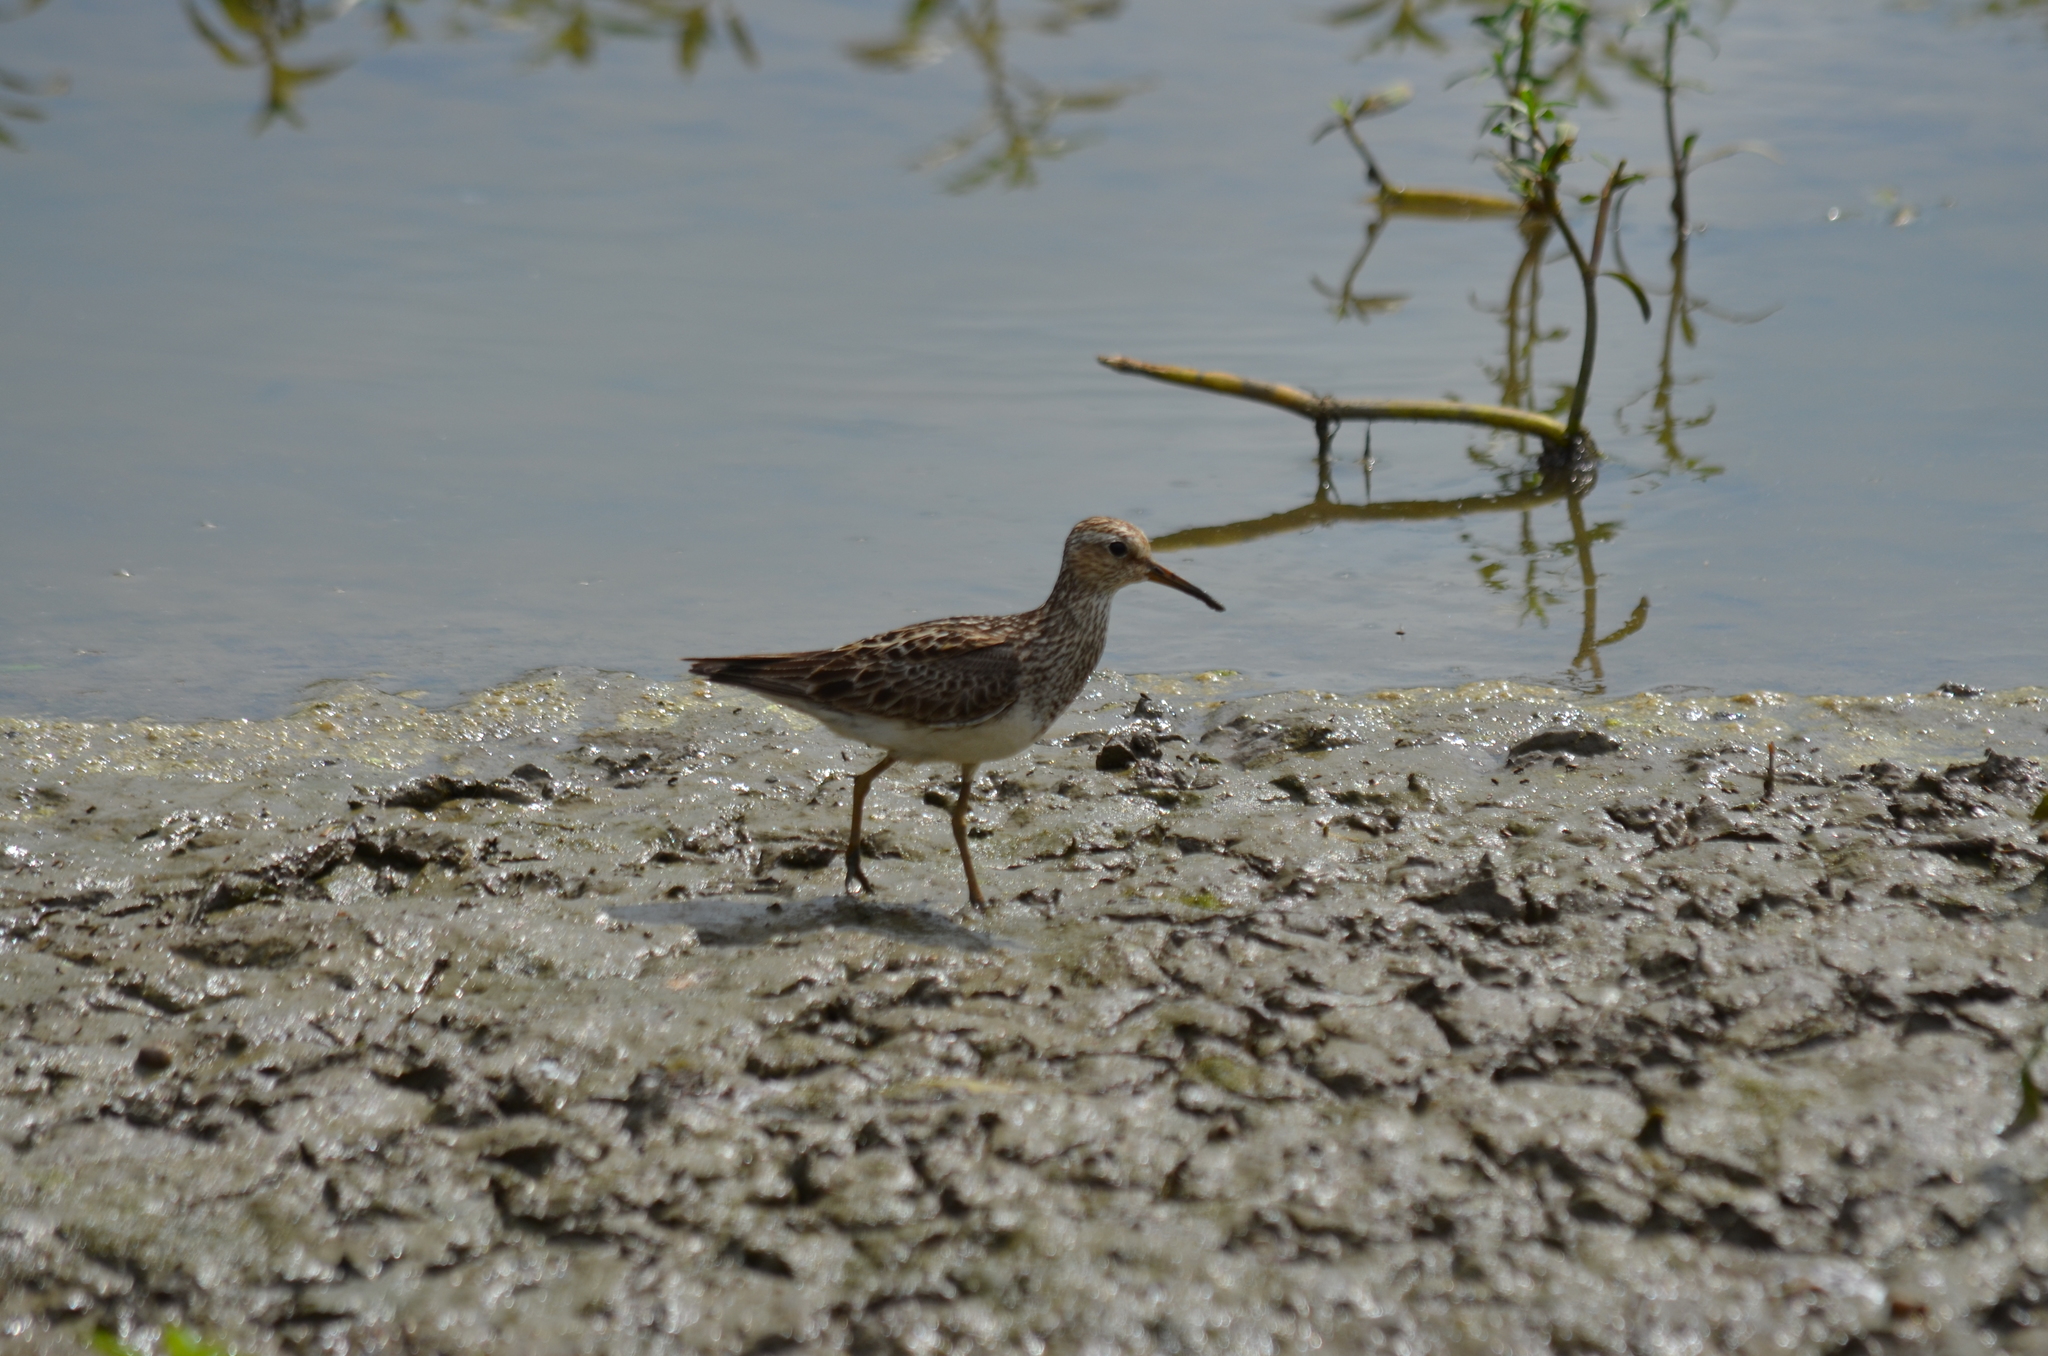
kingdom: Animalia
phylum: Chordata
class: Aves
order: Charadriiformes
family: Scolopacidae
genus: Calidris
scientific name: Calidris melanotos
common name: Pectoral sandpiper
